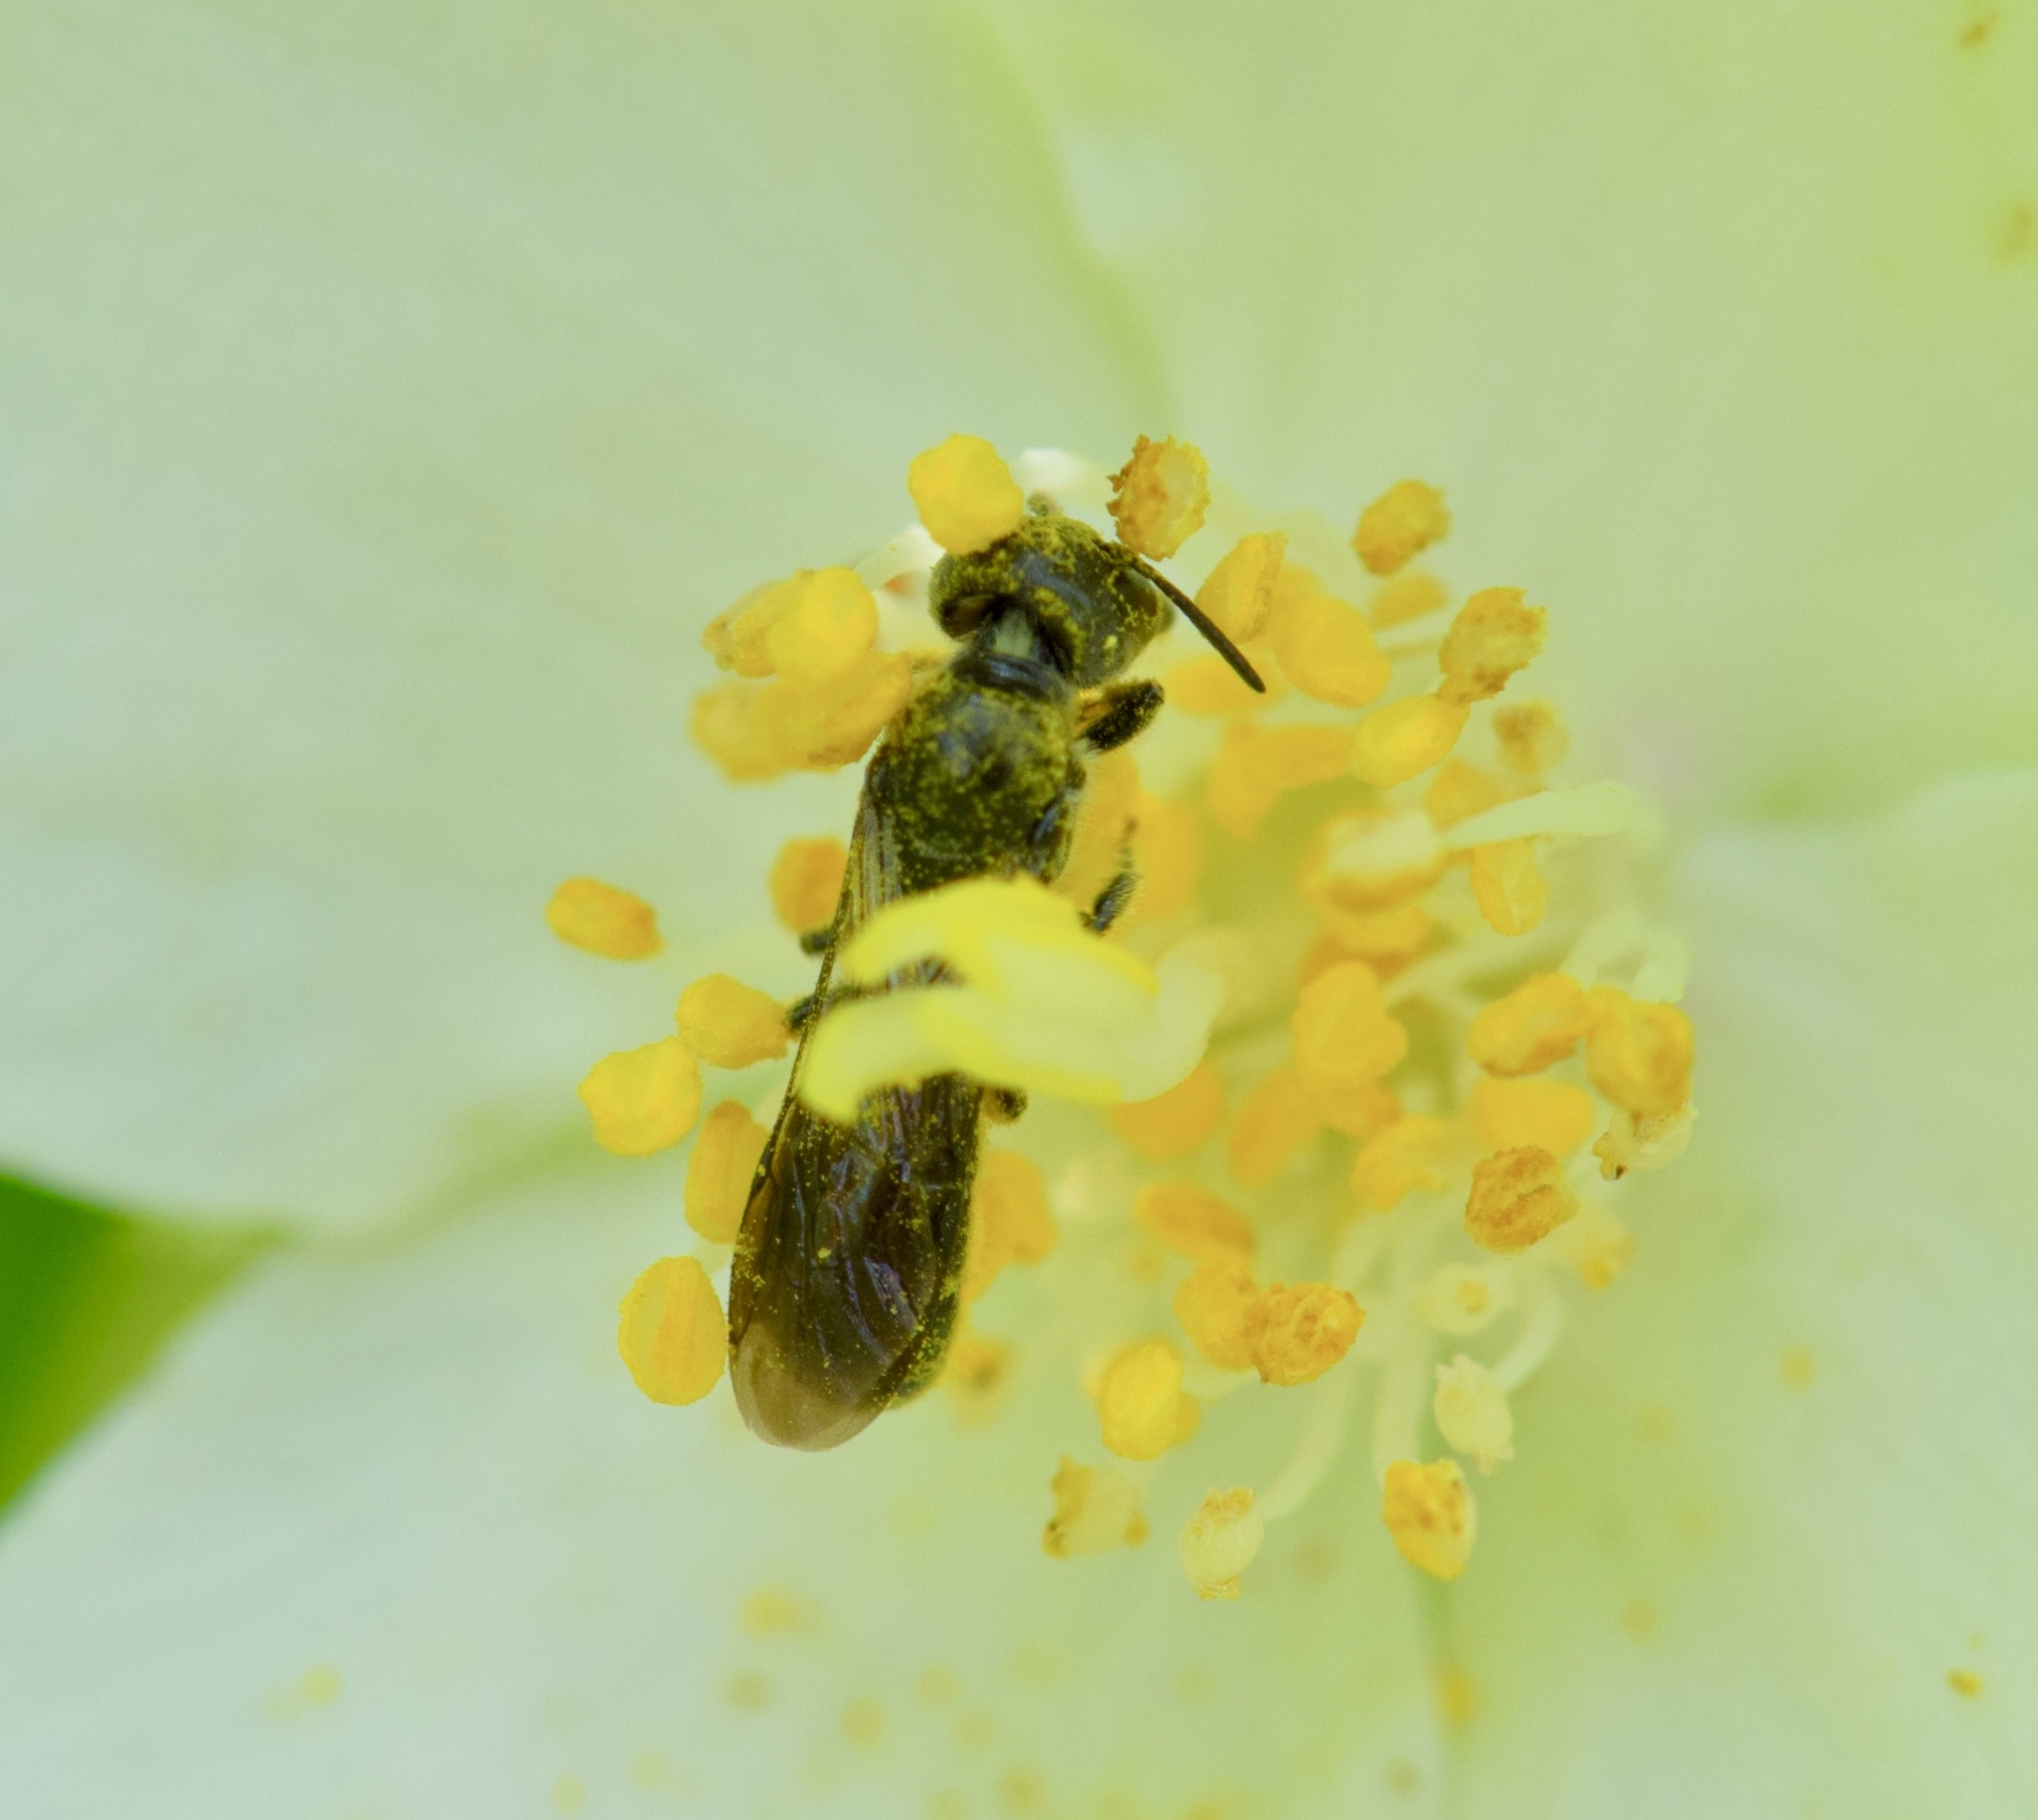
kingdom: Animalia
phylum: Arthropoda
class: Insecta
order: Hymenoptera
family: Megachilidae
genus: Chelostoma
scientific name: Chelostoma philadelphi
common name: Mock-orange scissor bee
